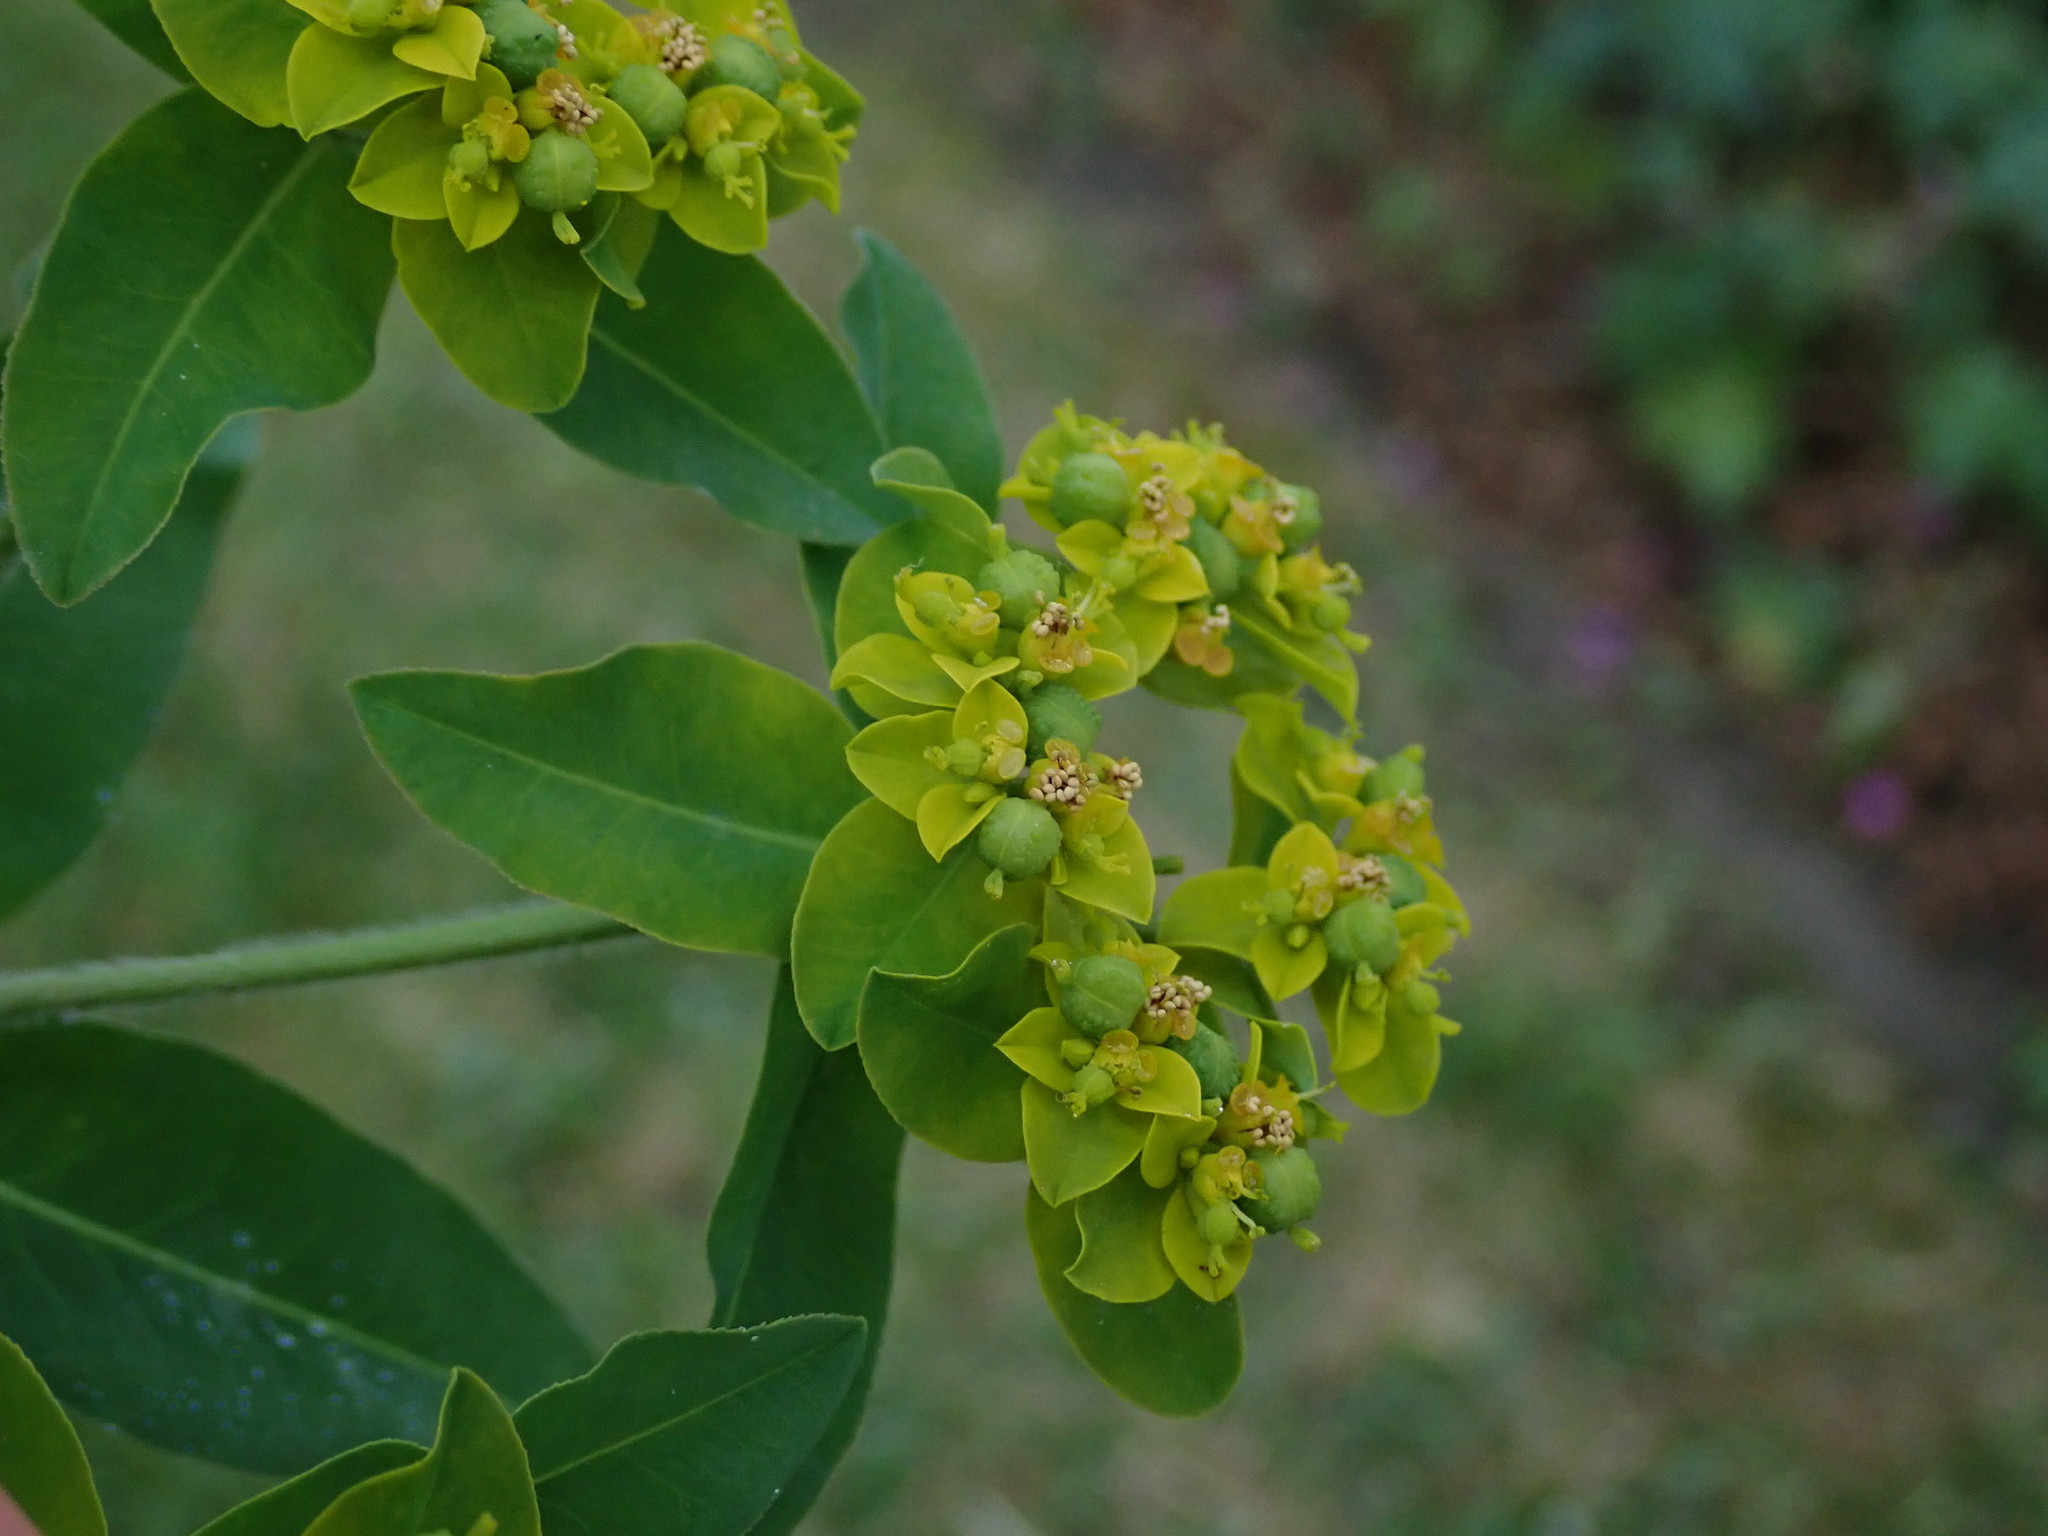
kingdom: Plantae
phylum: Tracheophyta
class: Magnoliopsida
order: Malpighiales
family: Euphorbiaceae
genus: Euphorbia
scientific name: Euphorbia oblongata
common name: Balkan spurge
